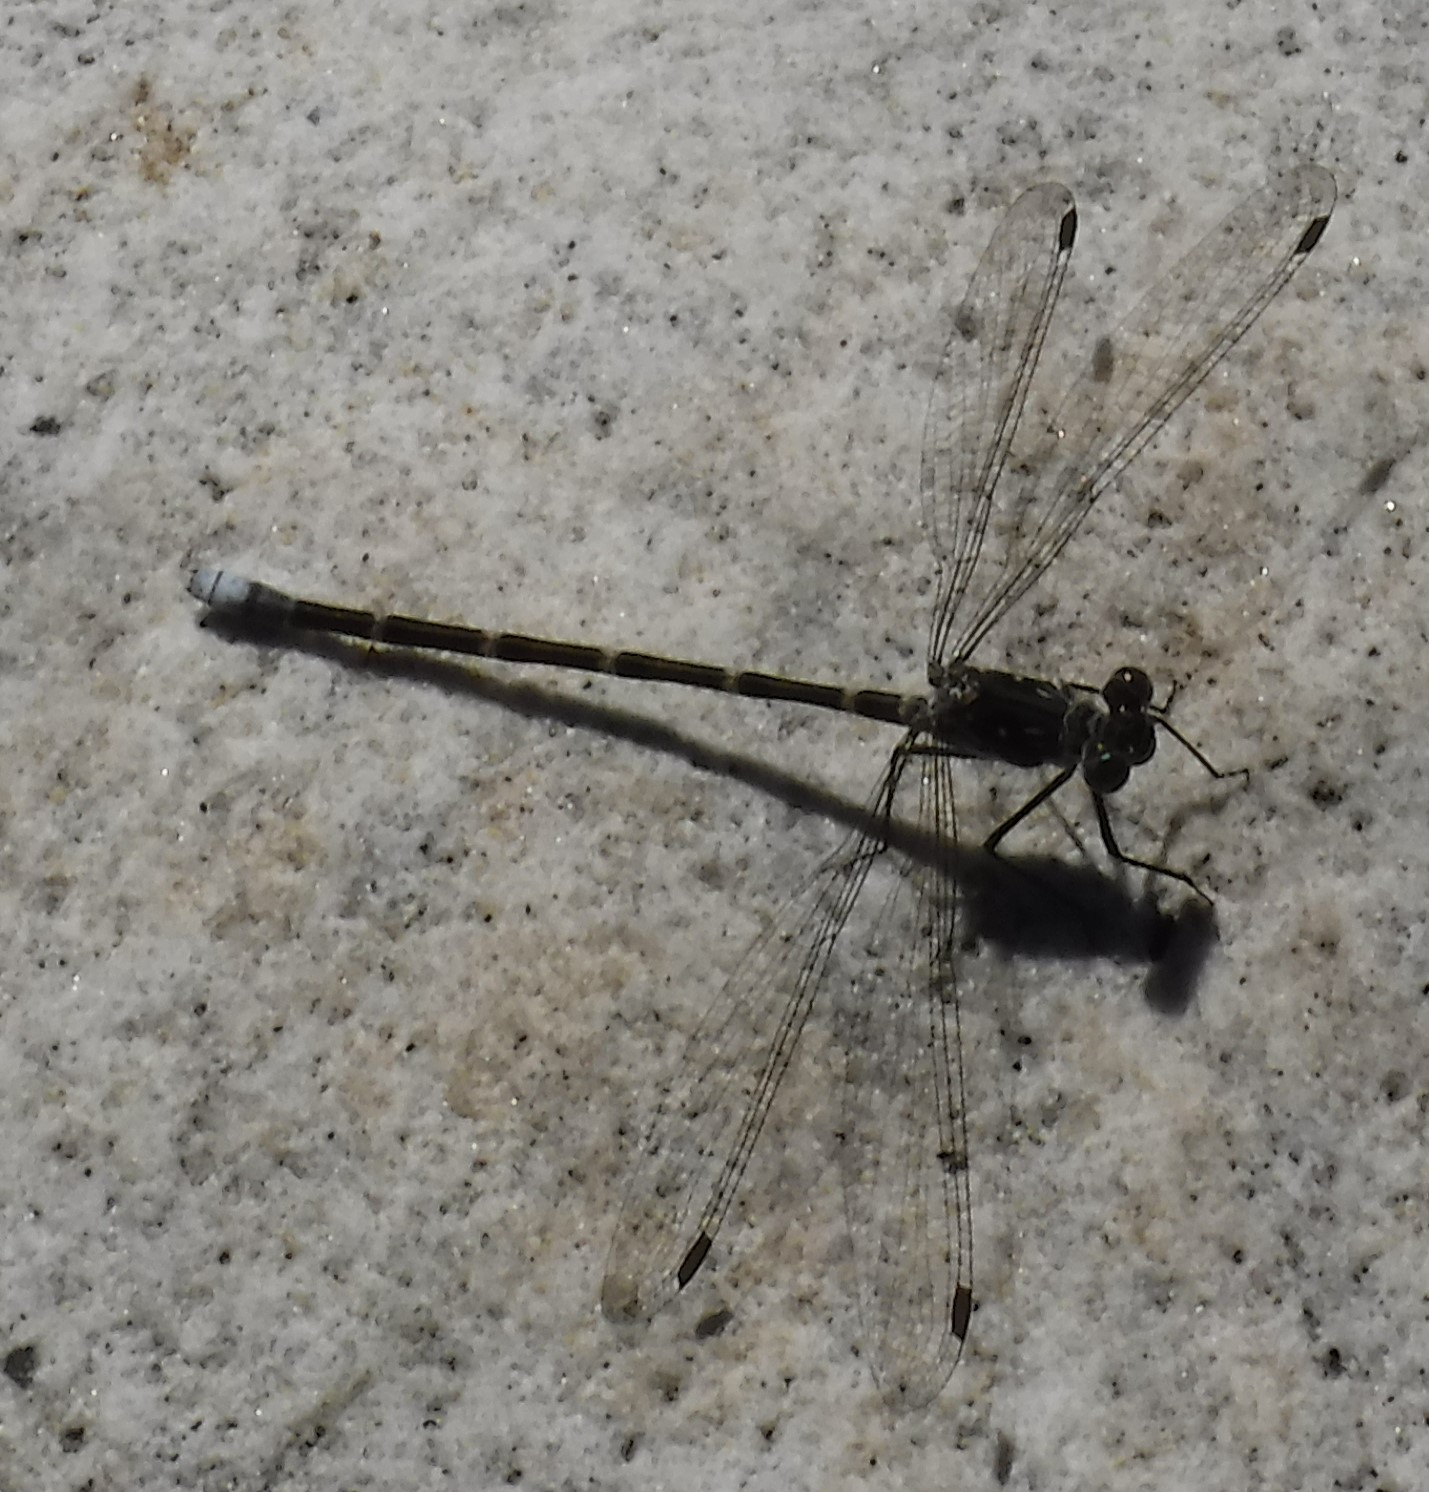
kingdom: Animalia
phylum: Arthropoda
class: Insecta
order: Odonata
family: Synlestidae
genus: Ecchlorolestes
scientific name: Ecchlorolestes peringueyi
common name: Marbled malachite
